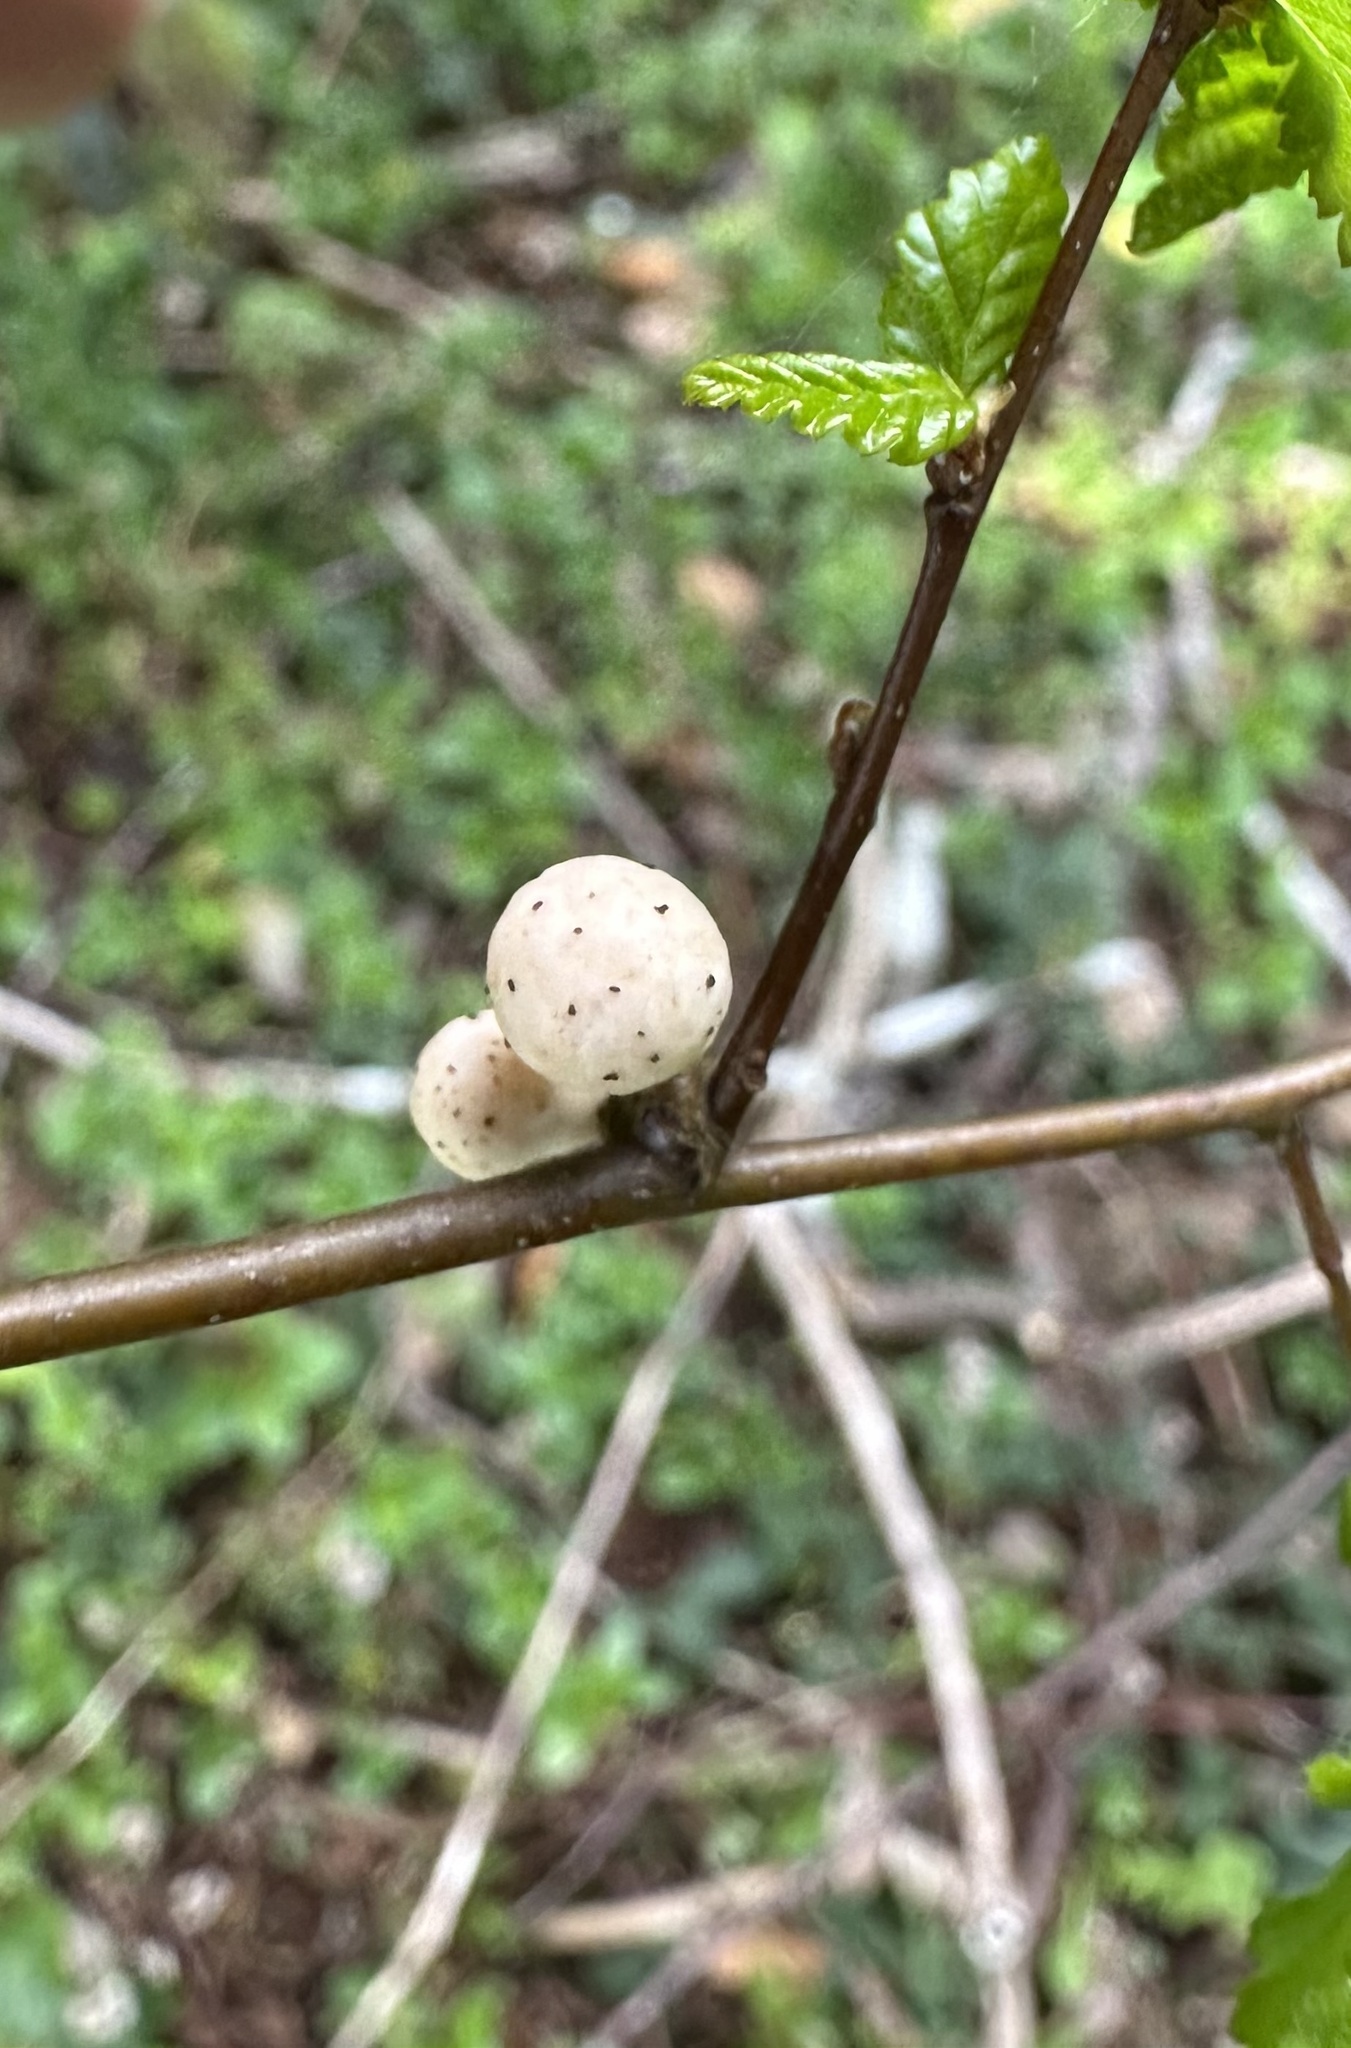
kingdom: Fungi
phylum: Ascomycota
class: Leotiomycetes
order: Cyttariales
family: Cyttariaceae
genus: Cyttaria
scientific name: Cyttaria espinosae
